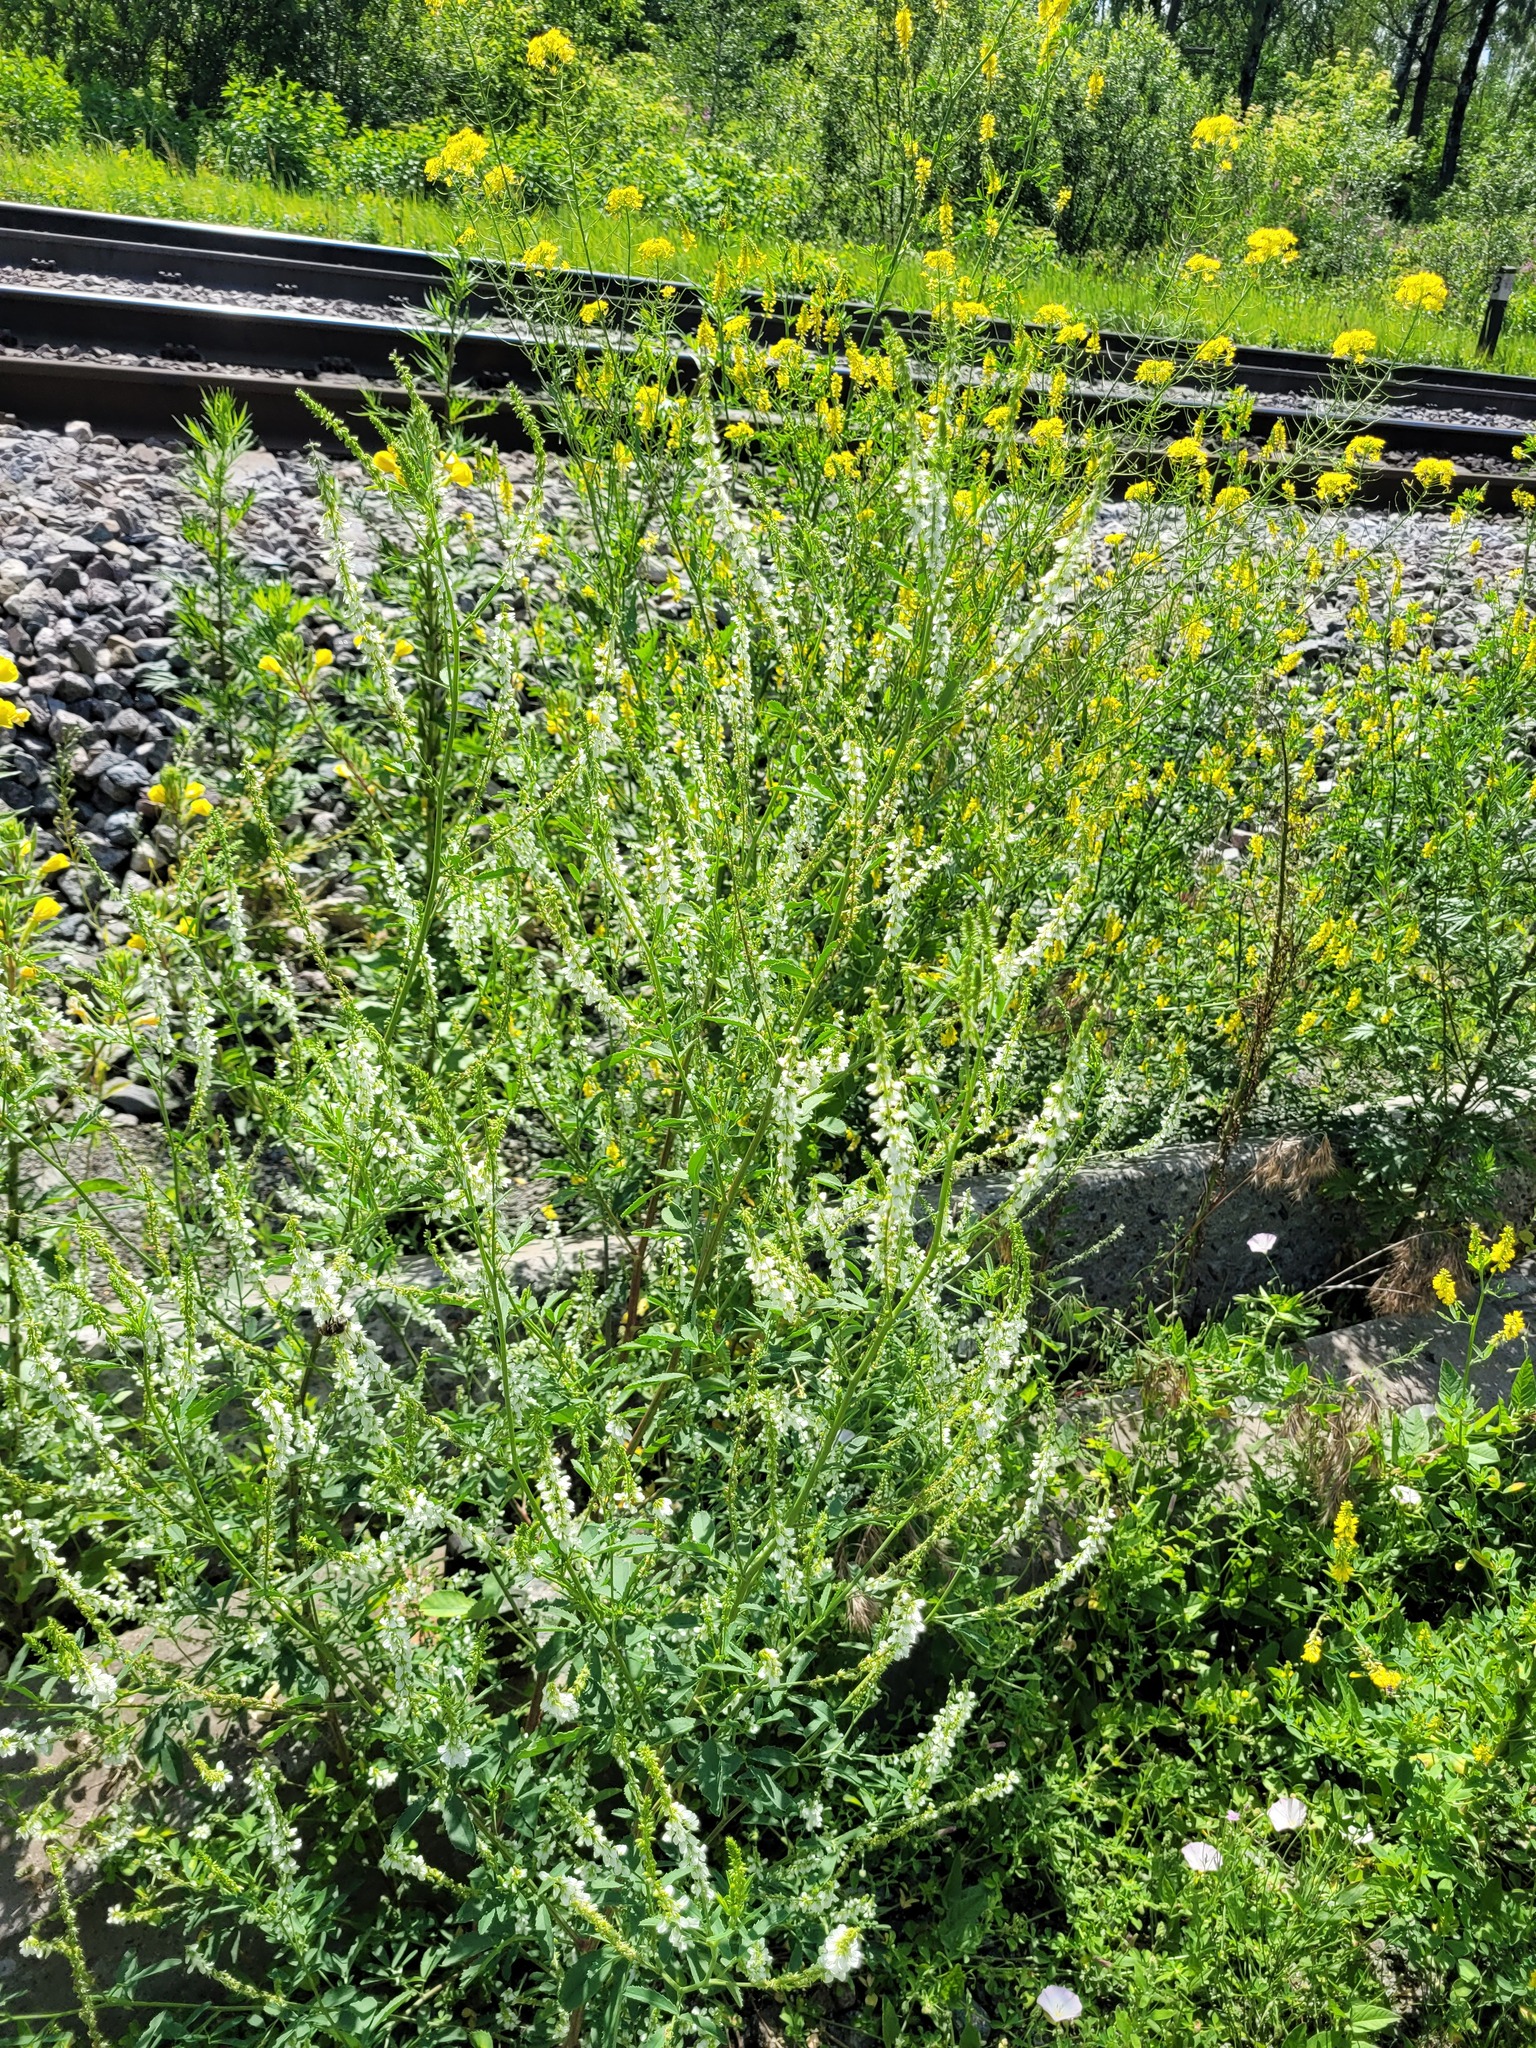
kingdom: Plantae
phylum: Tracheophyta
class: Magnoliopsida
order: Fabales
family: Fabaceae
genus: Melilotus
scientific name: Melilotus albus
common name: White melilot
